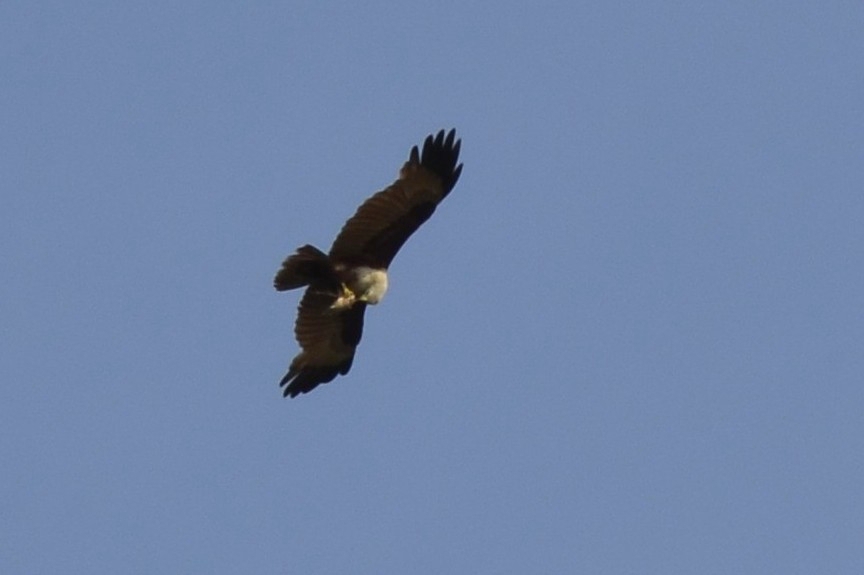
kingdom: Animalia
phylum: Chordata
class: Aves
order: Accipitriformes
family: Accipitridae
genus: Haliastur
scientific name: Haliastur indus
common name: Brahminy kite
